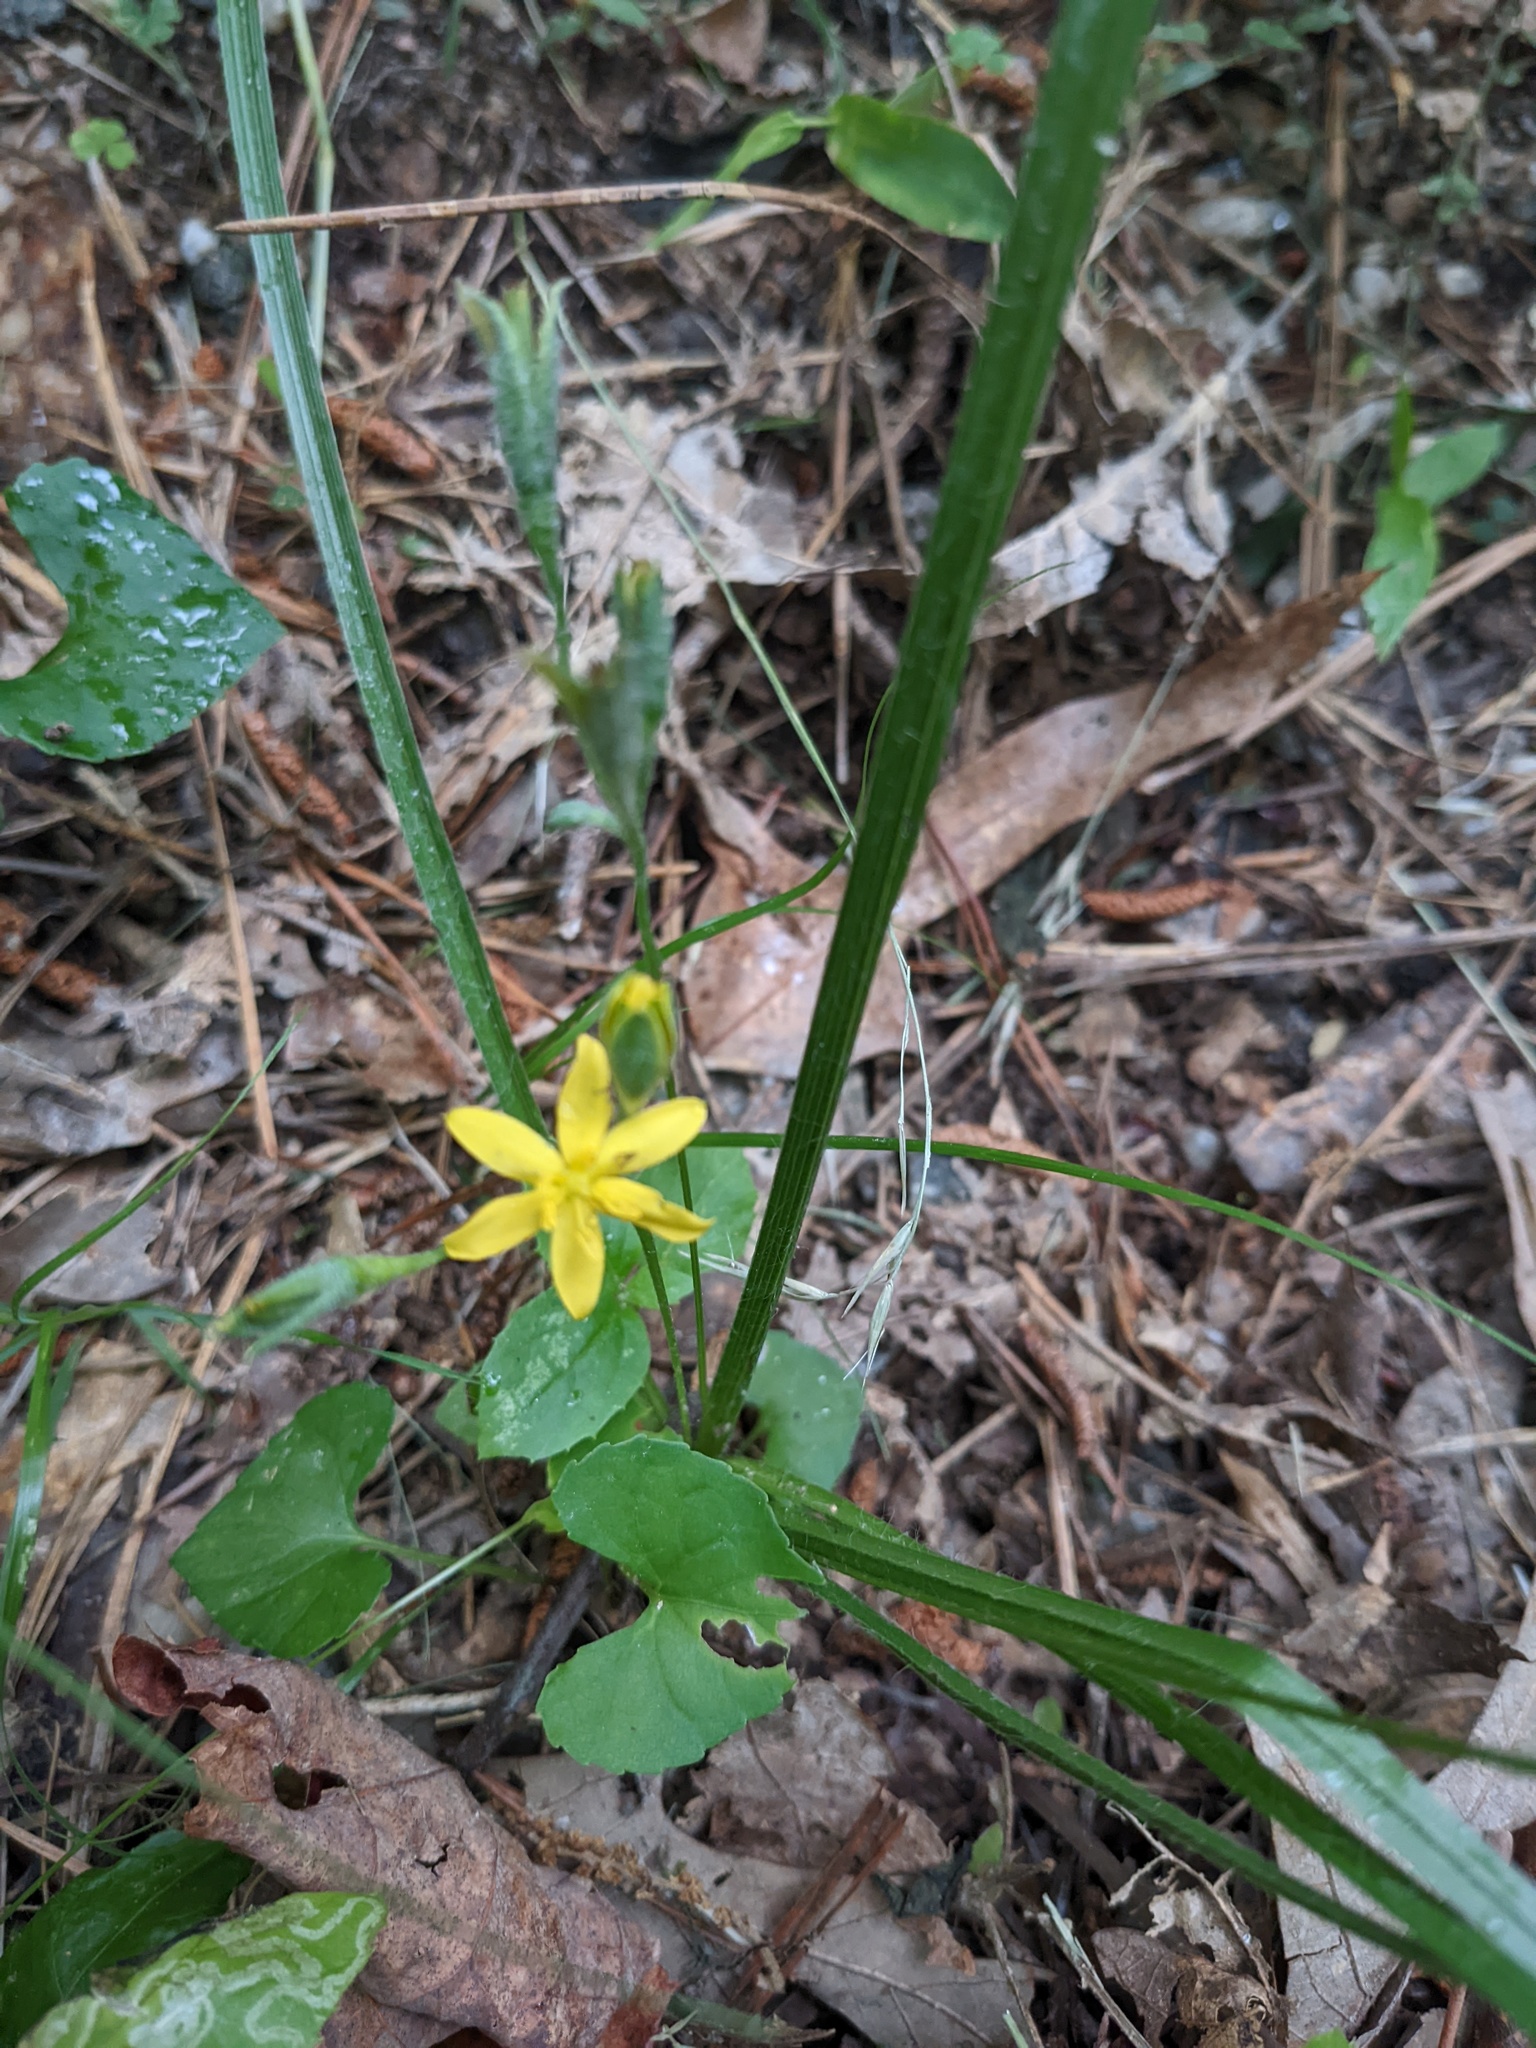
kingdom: Plantae
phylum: Tracheophyta
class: Liliopsida
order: Asparagales
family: Hypoxidaceae
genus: Hypoxis
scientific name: Hypoxis hirsuta
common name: Common goldstar
